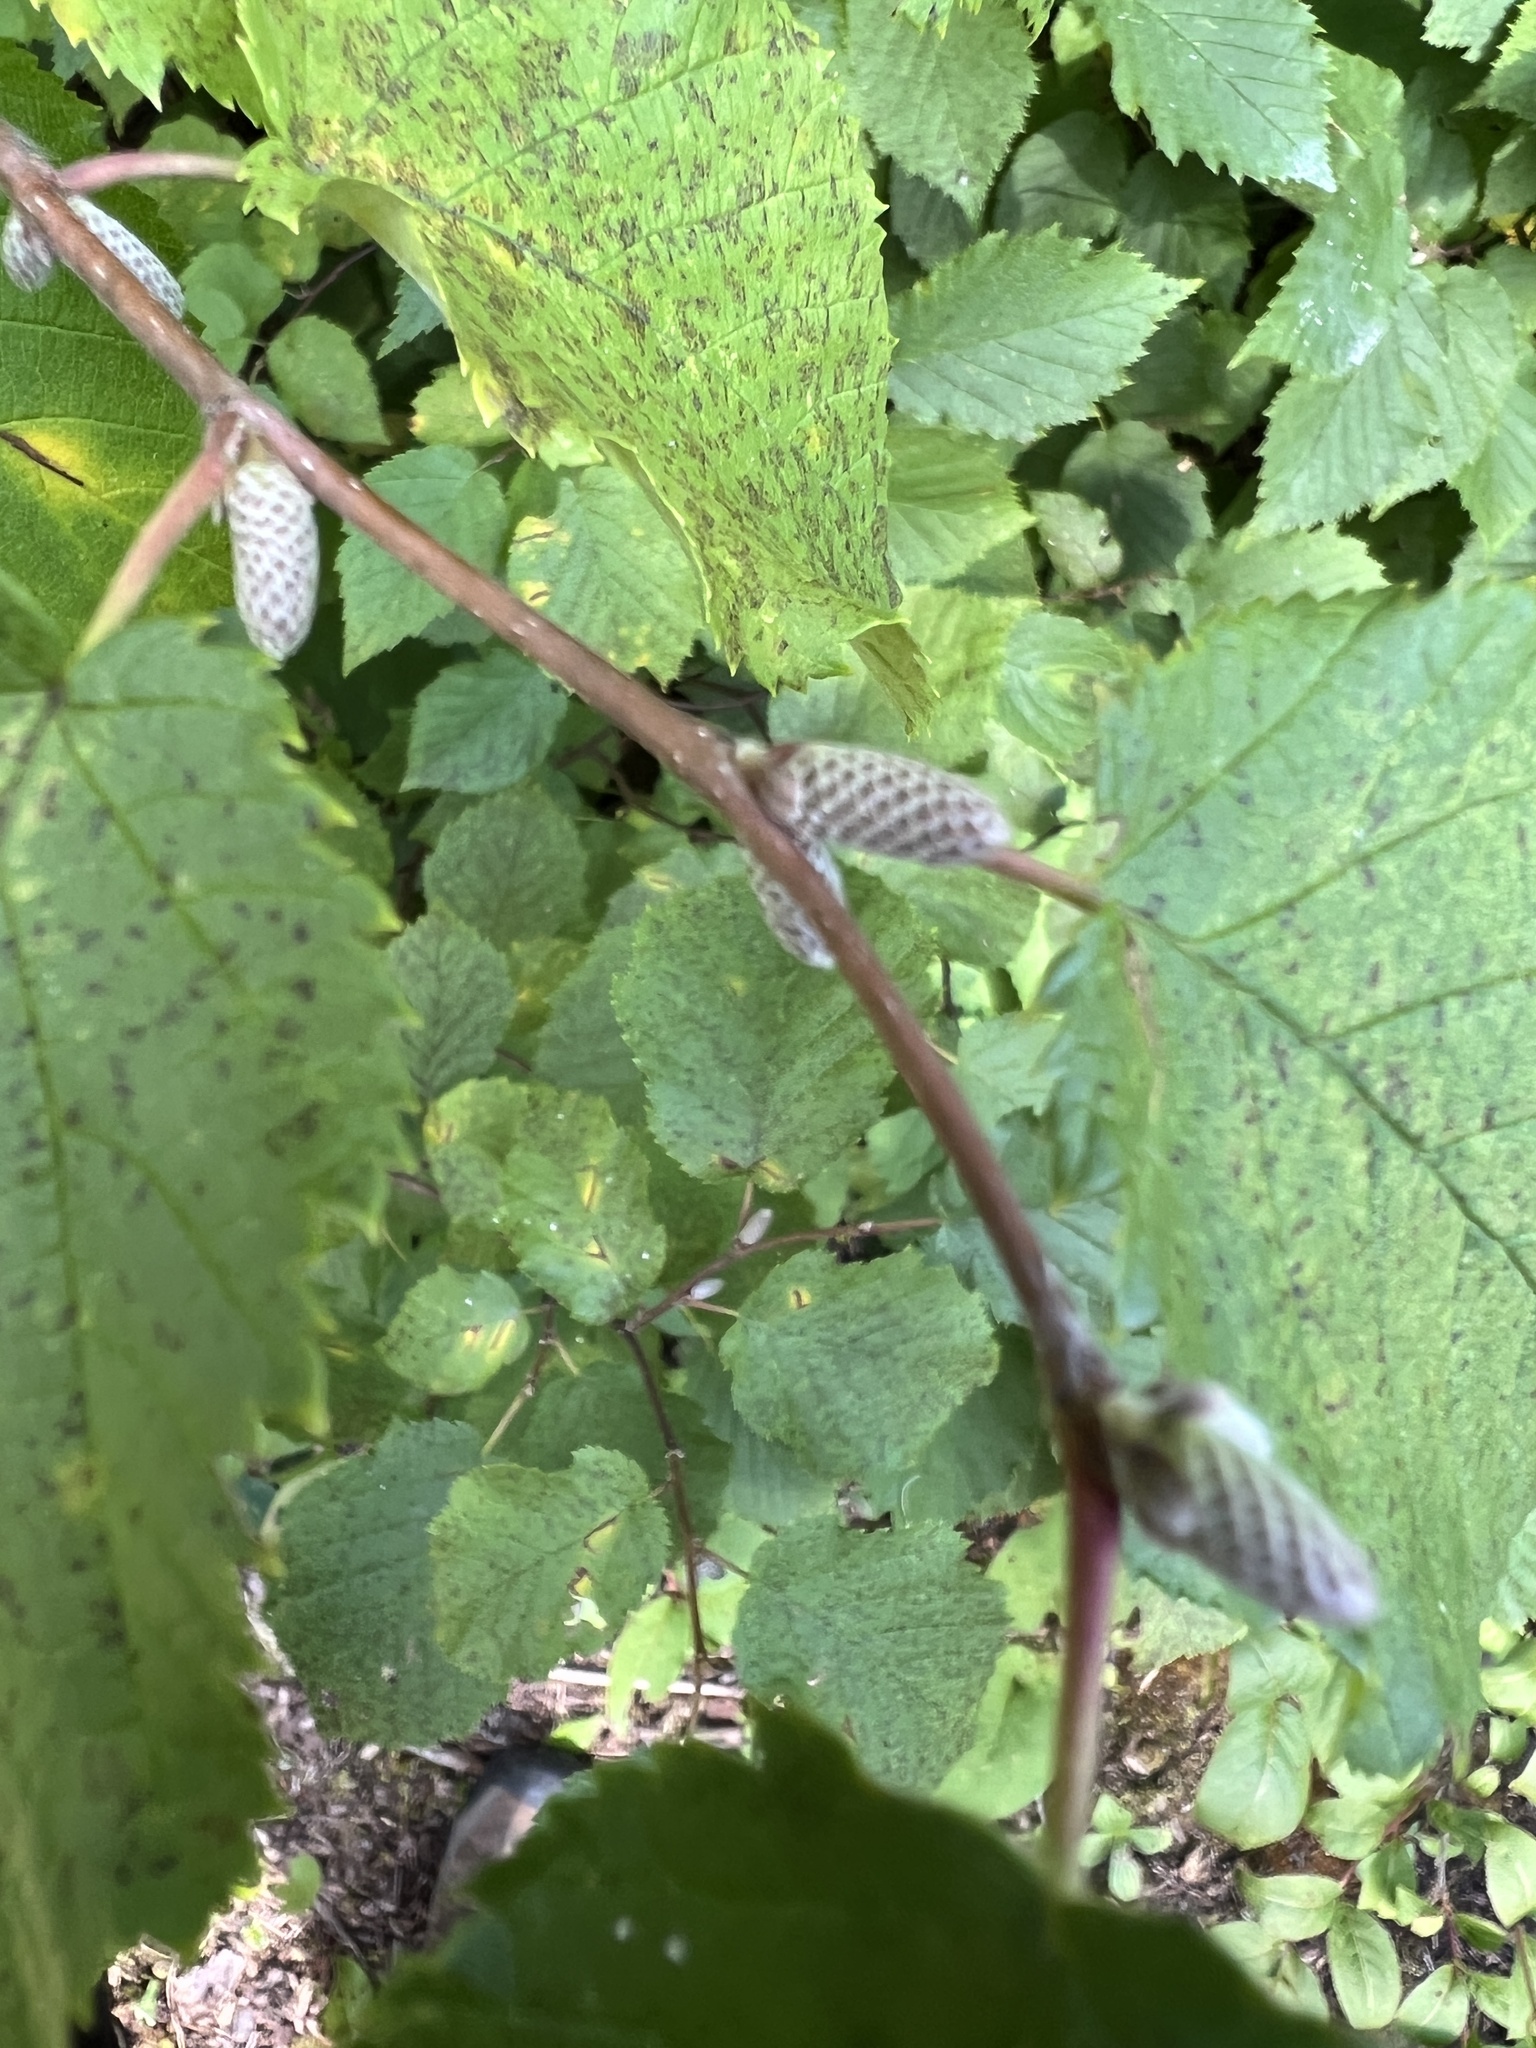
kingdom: Plantae
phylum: Tracheophyta
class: Magnoliopsida
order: Fagales
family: Betulaceae
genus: Corylus
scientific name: Corylus cornuta
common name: Beaked hazel
